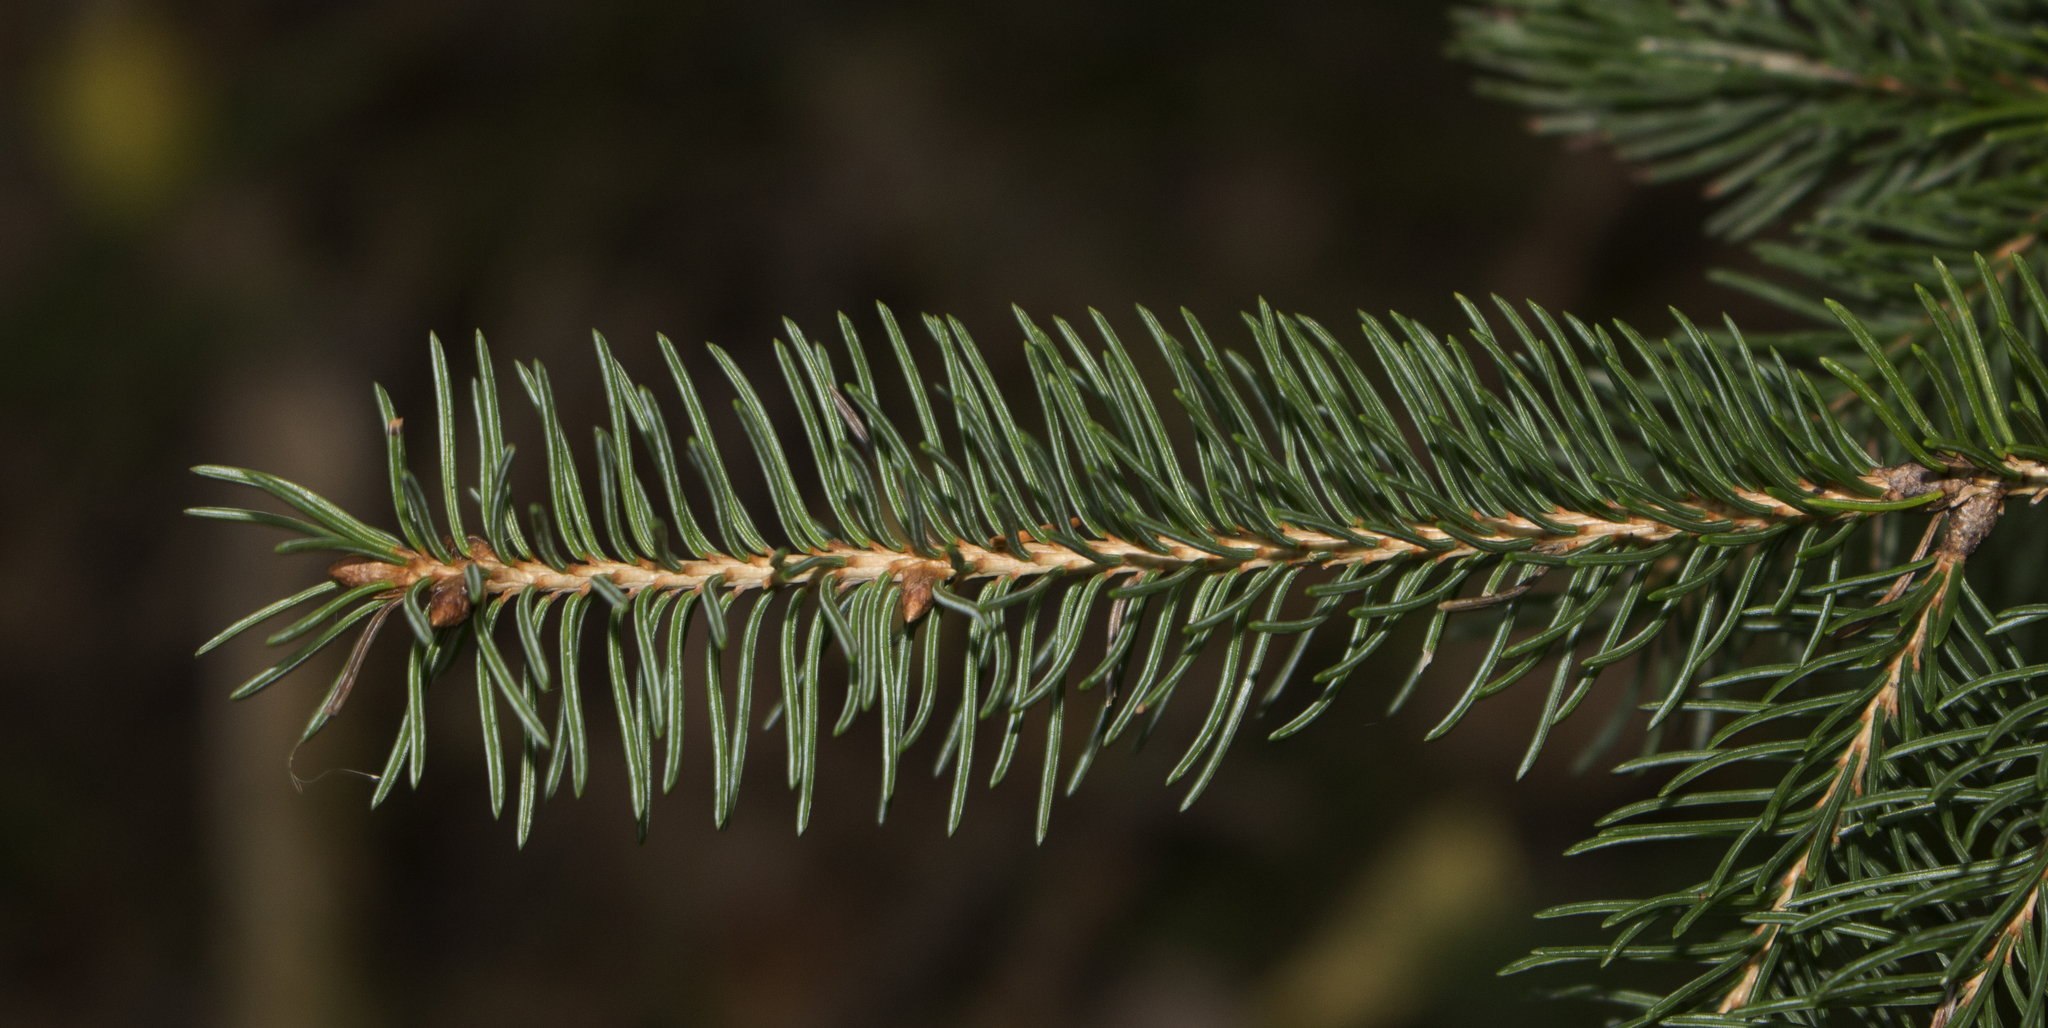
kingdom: Plantae
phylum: Tracheophyta
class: Pinopsida
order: Pinales
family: Pinaceae
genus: Picea
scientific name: Picea glauca
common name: White spruce
